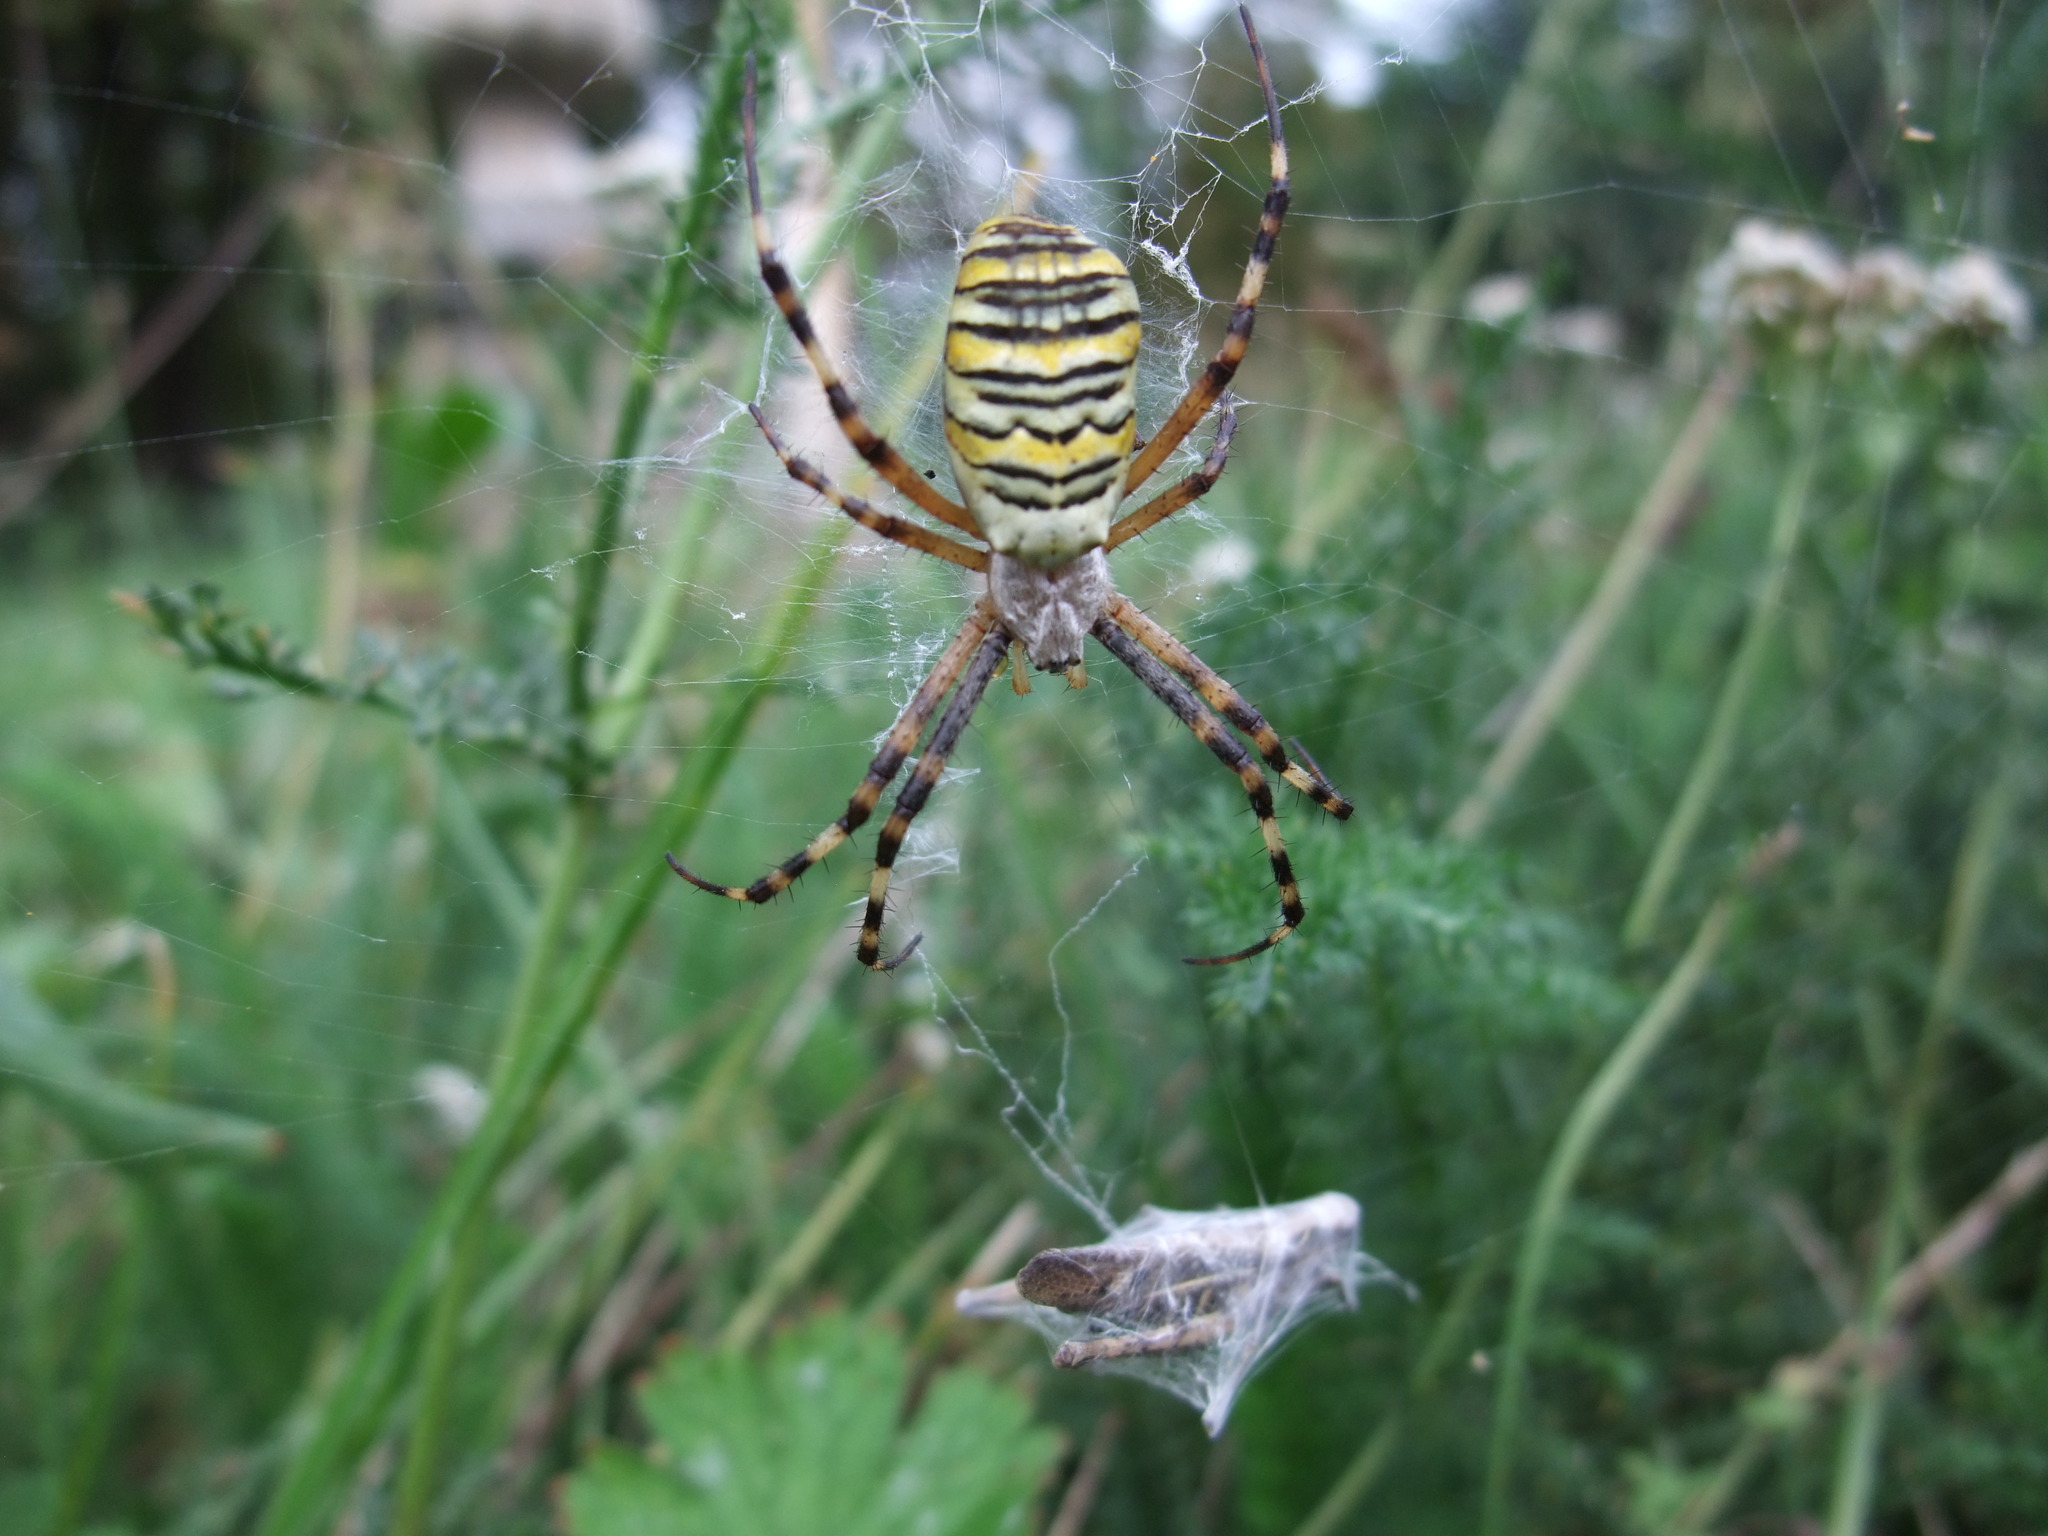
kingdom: Animalia
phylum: Arthropoda
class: Arachnida
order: Araneae
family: Araneidae
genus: Argiope
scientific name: Argiope bruennichi
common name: Wasp spider
